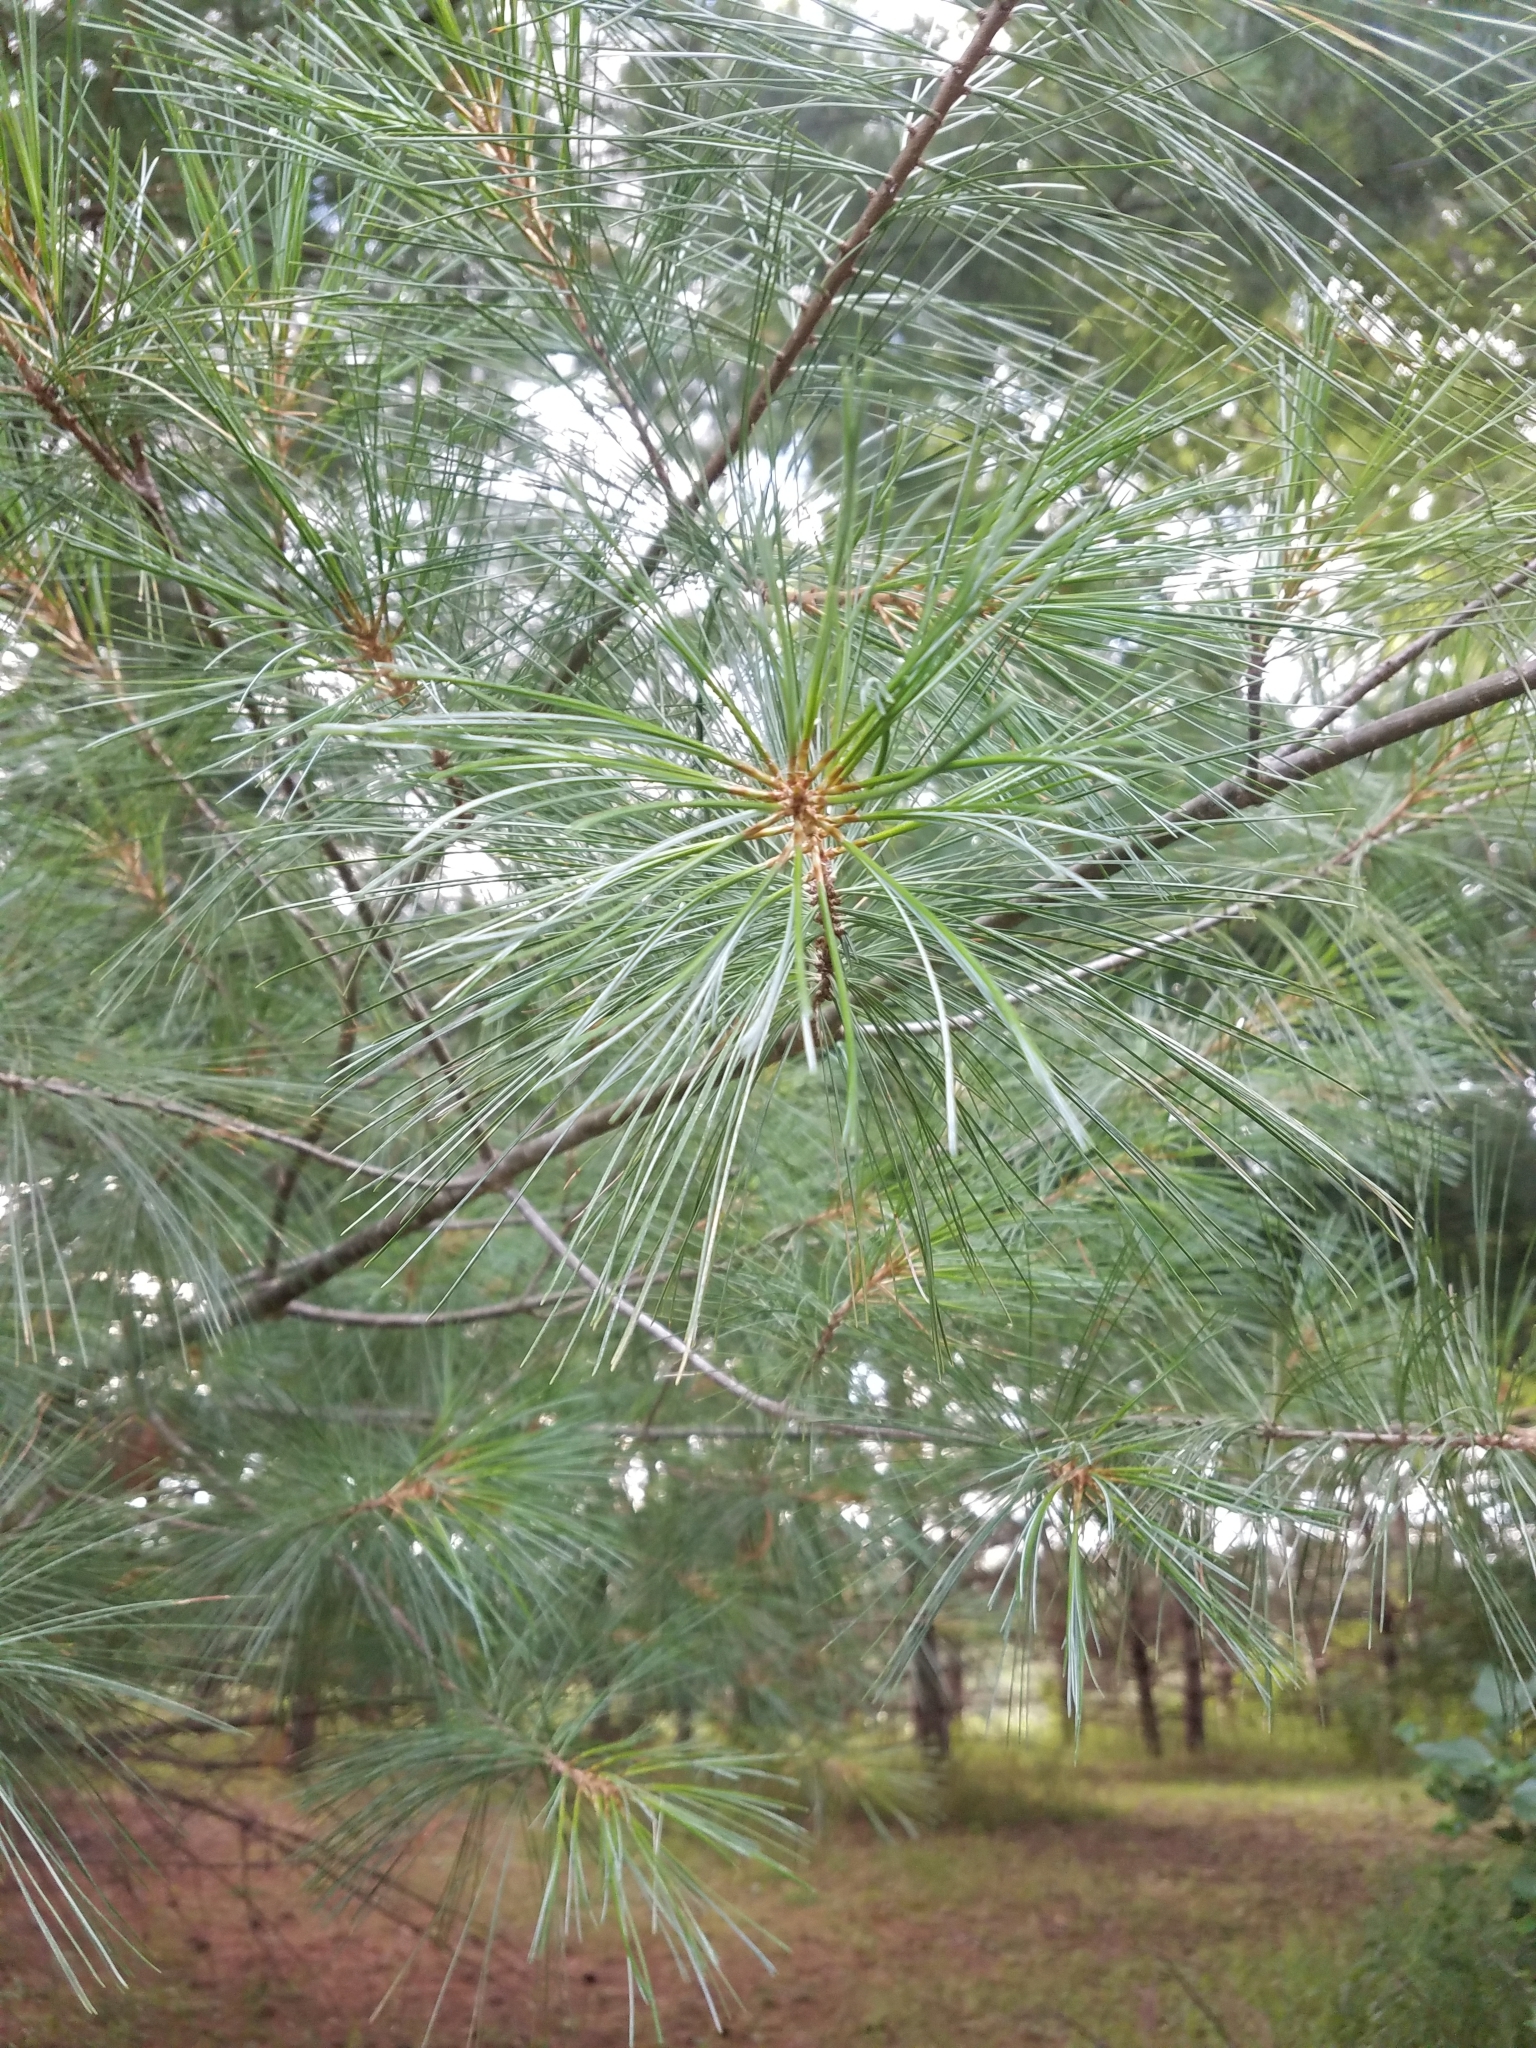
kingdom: Plantae
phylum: Tracheophyta
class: Pinopsida
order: Pinales
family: Pinaceae
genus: Pinus
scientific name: Pinus strobus
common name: Weymouth pine
